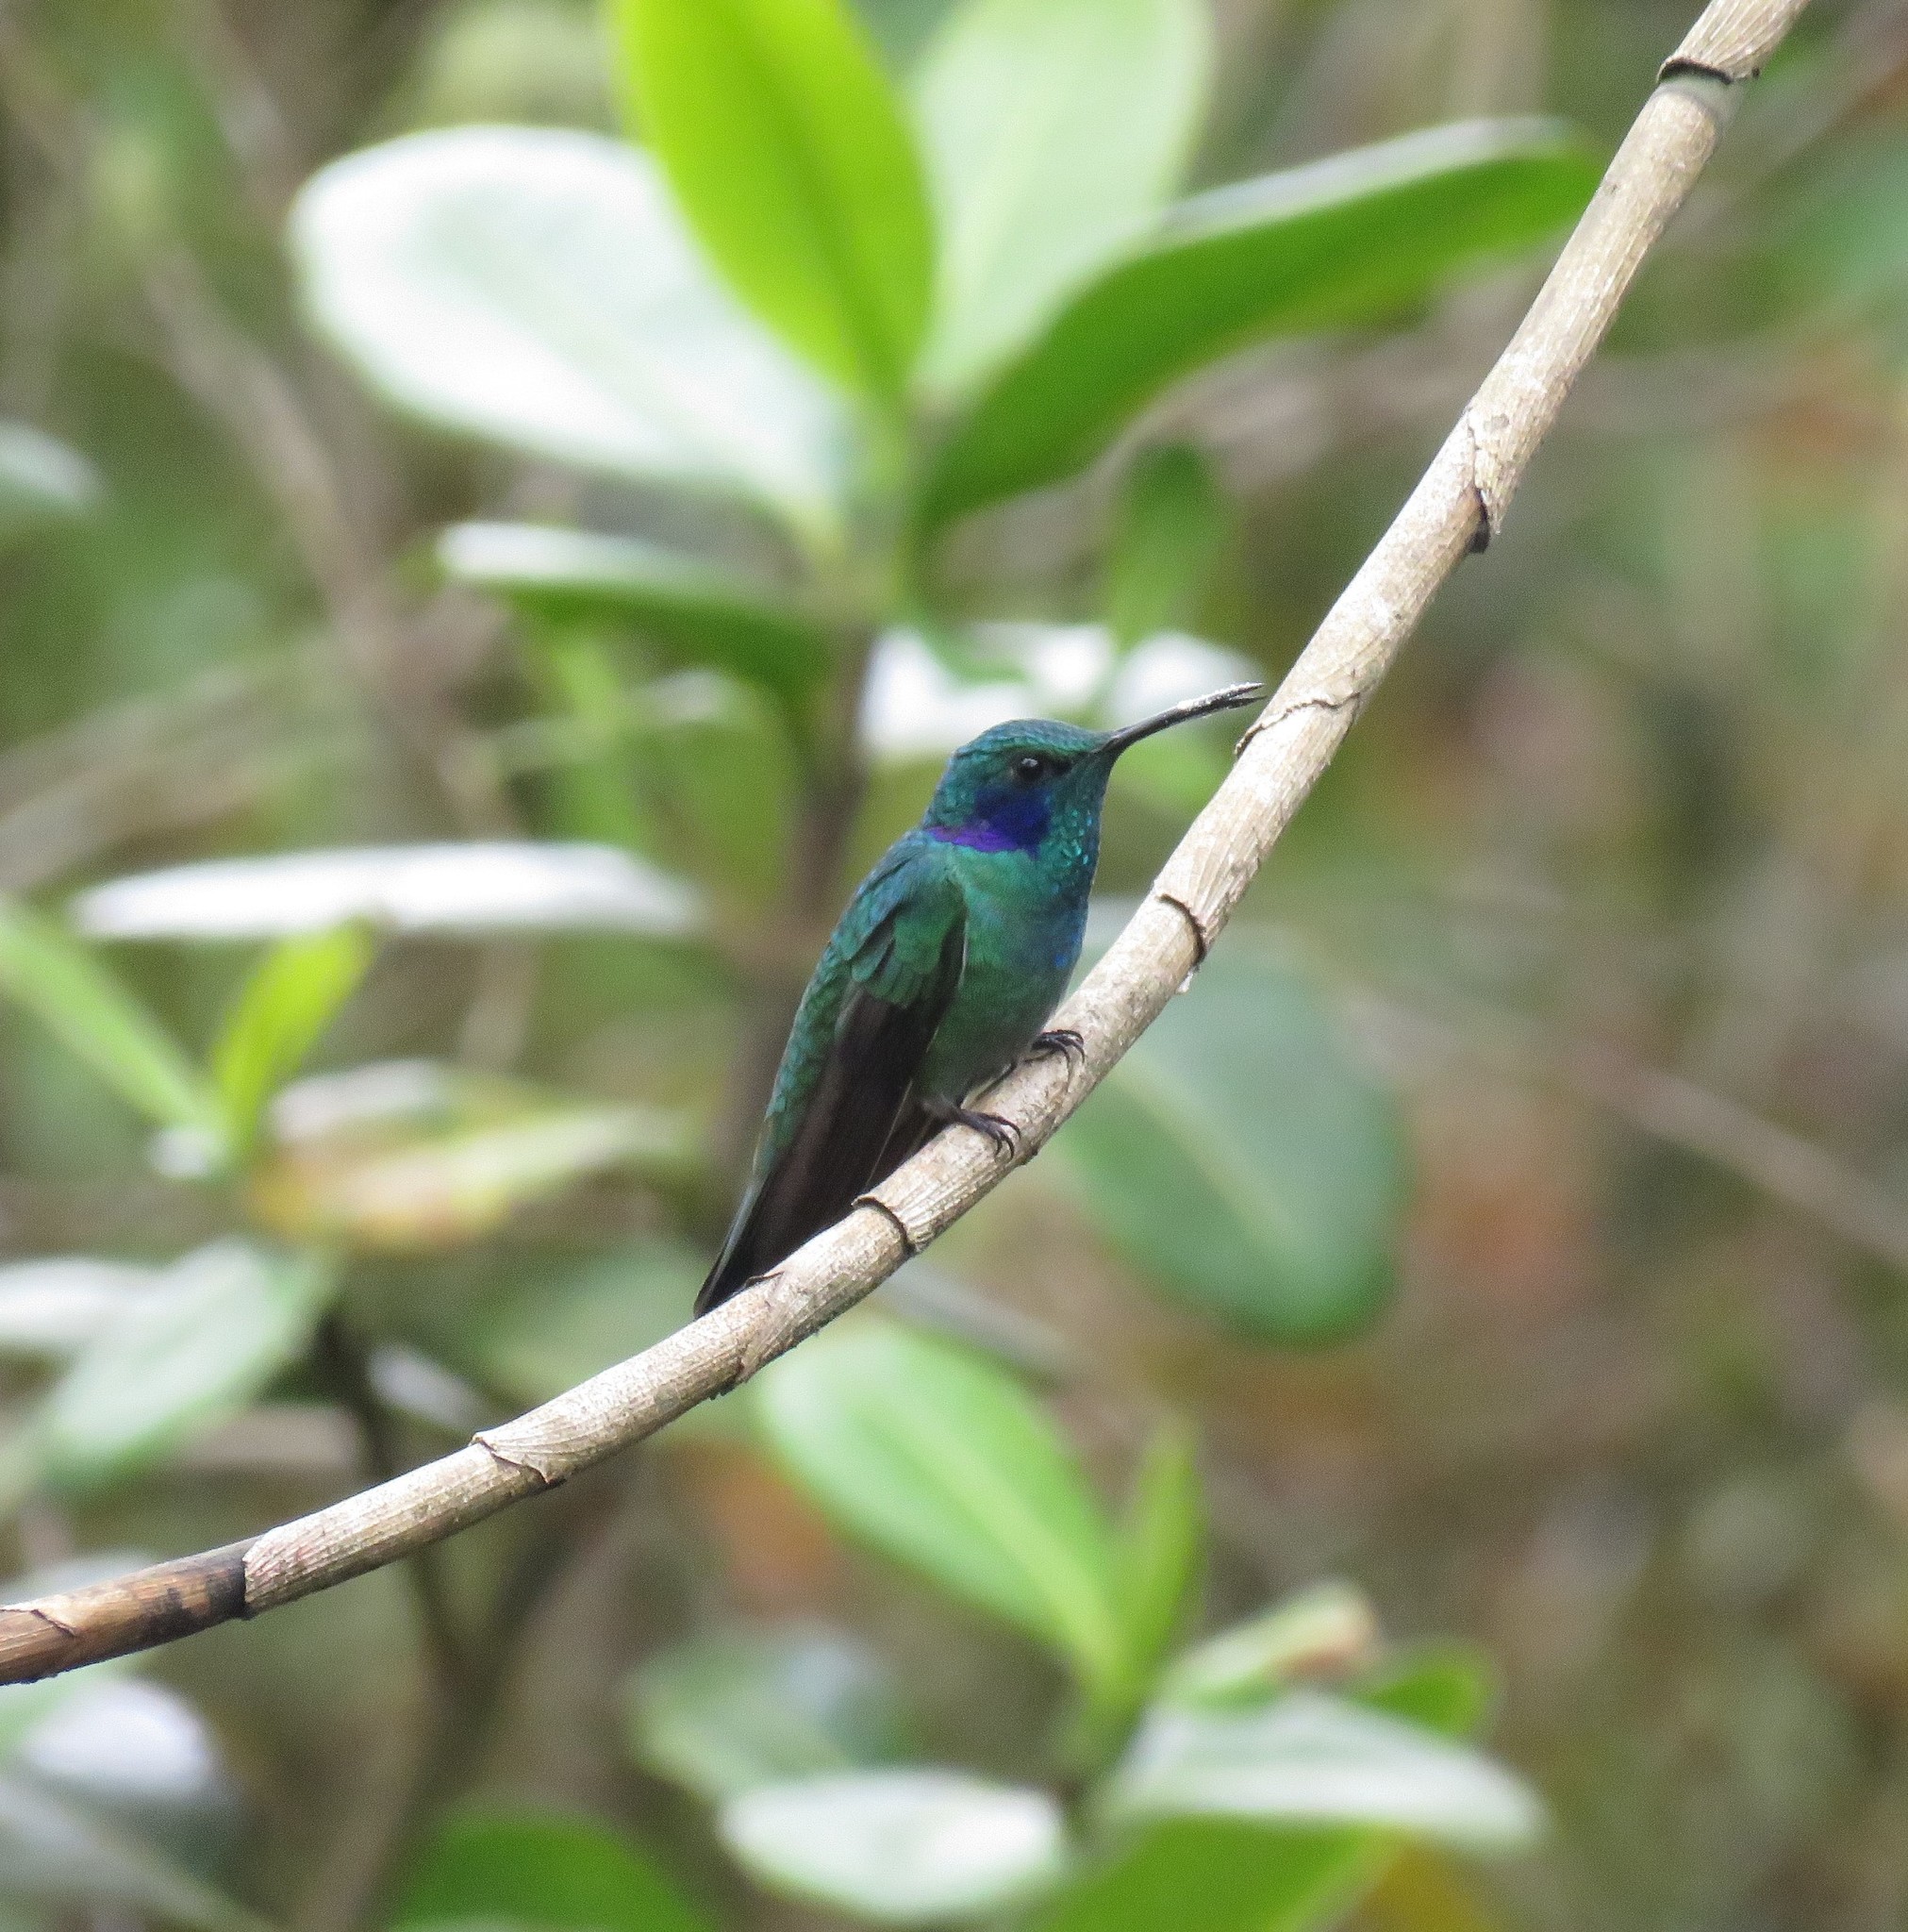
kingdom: Animalia
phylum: Chordata
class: Aves
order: Apodiformes
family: Trochilidae
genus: Colibri
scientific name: Colibri cyanotus
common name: Lesser violetear
